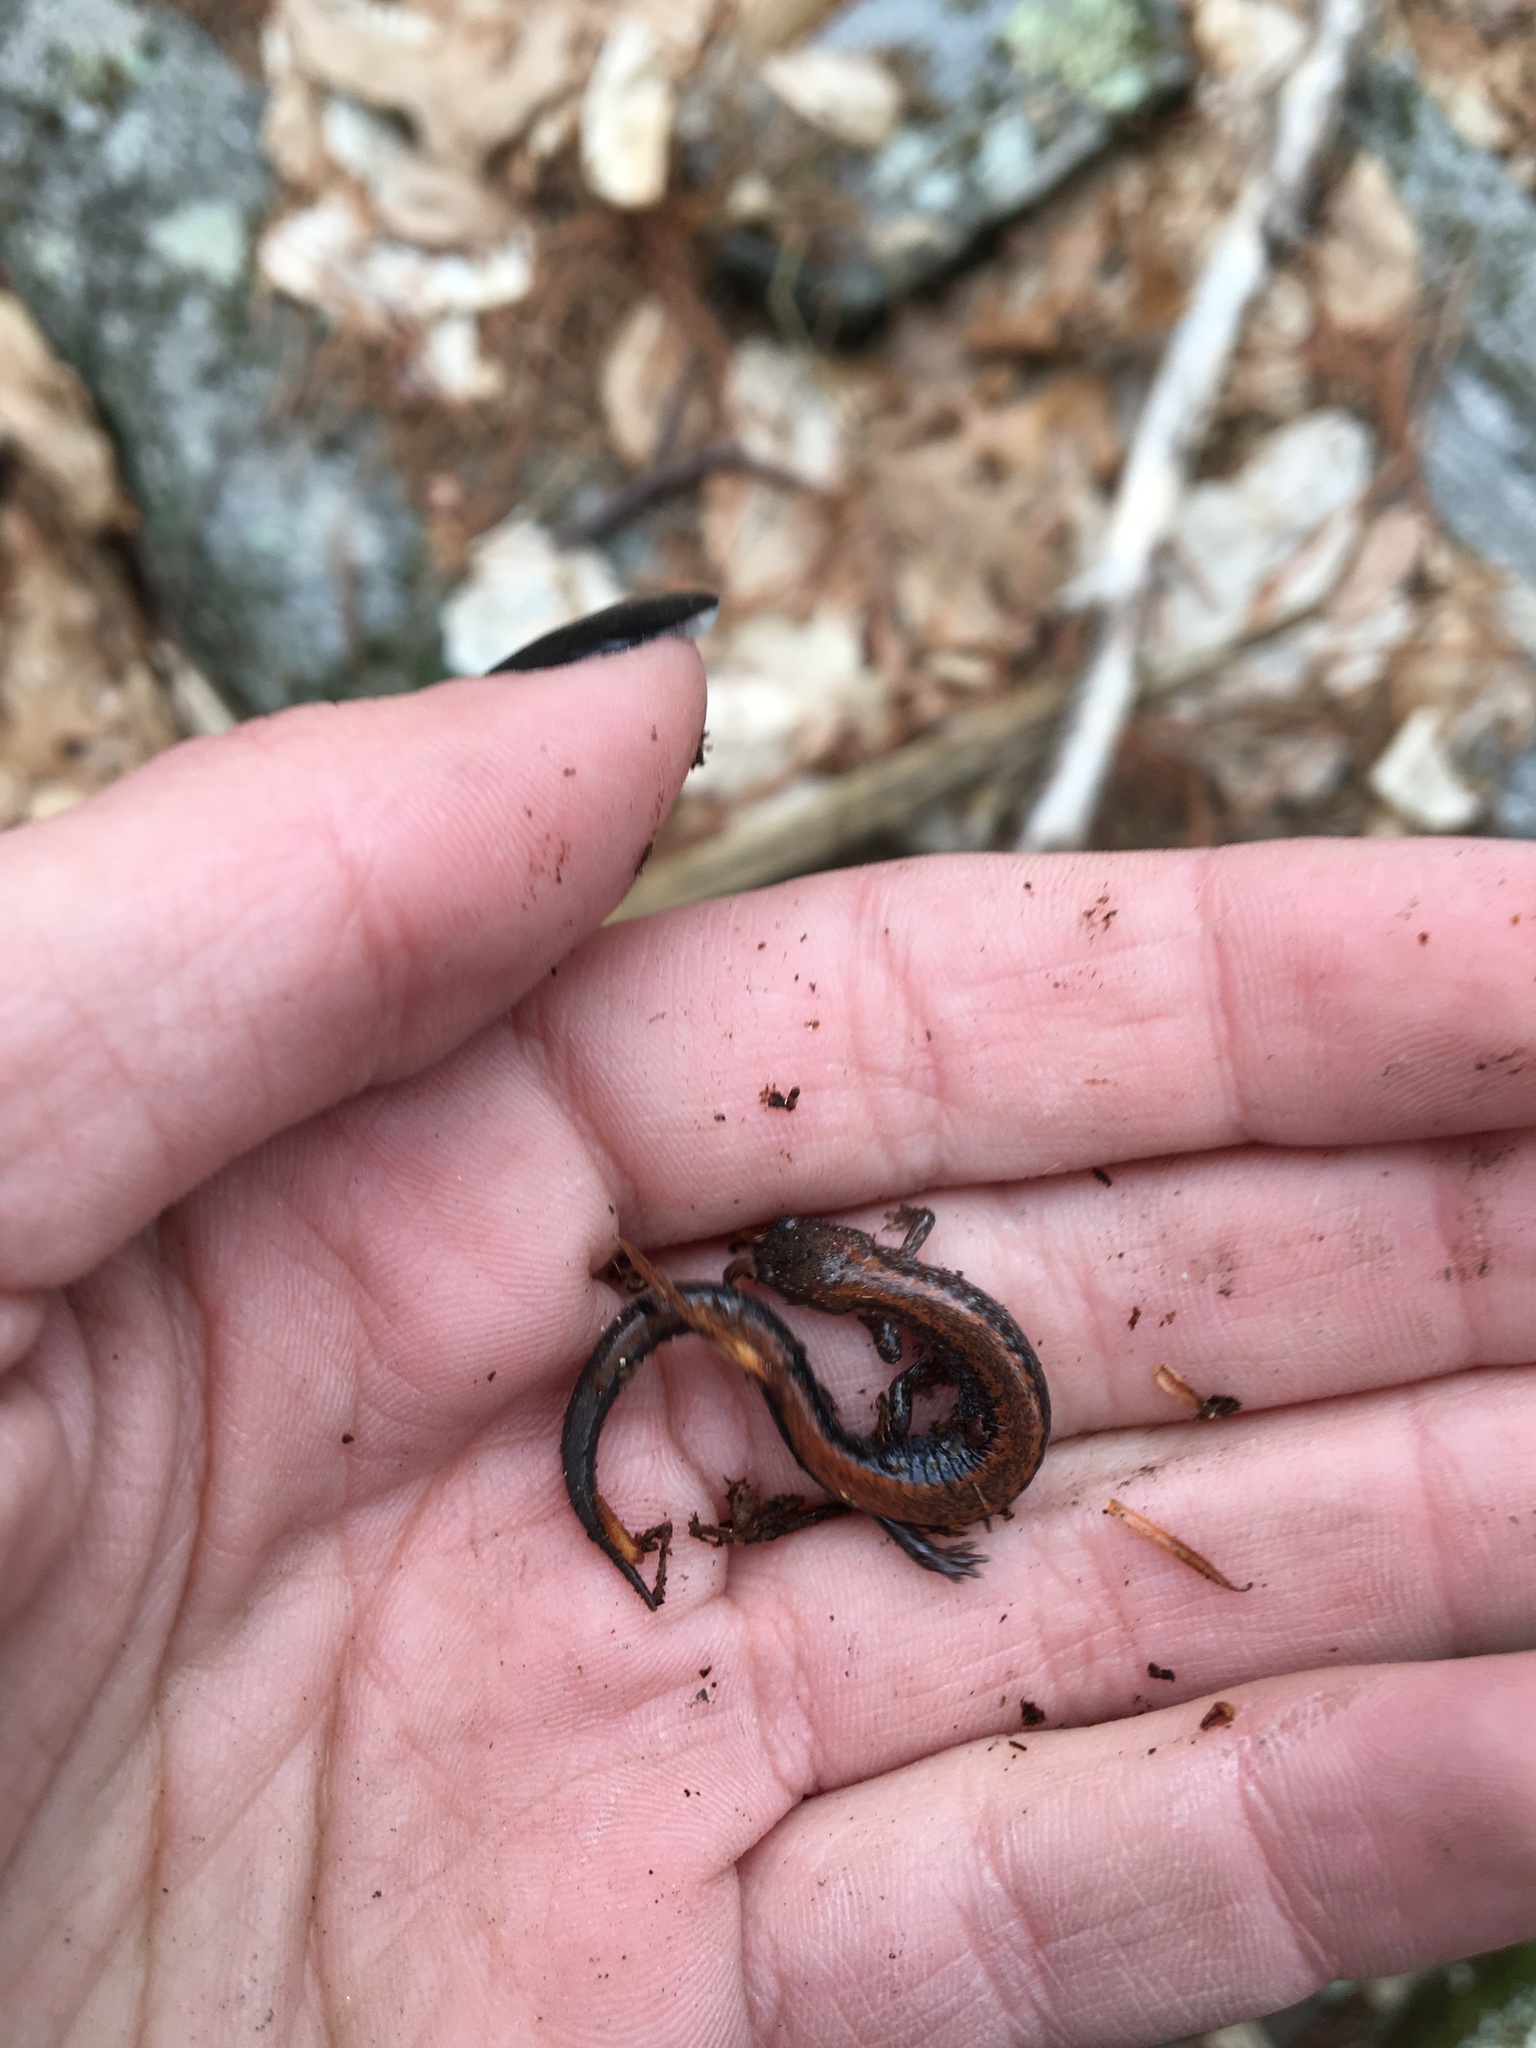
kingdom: Animalia
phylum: Chordata
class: Amphibia
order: Caudata
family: Plethodontidae
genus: Plethodon
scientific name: Plethodon cinereus
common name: Redback salamander
